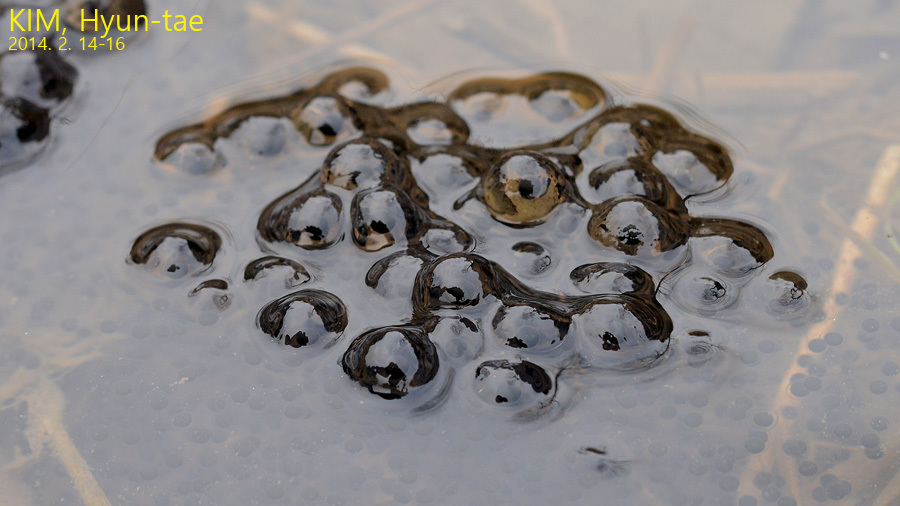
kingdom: Animalia
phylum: Chordata
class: Amphibia
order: Anura
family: Ranidae
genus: Rana
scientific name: Rana uenoi
